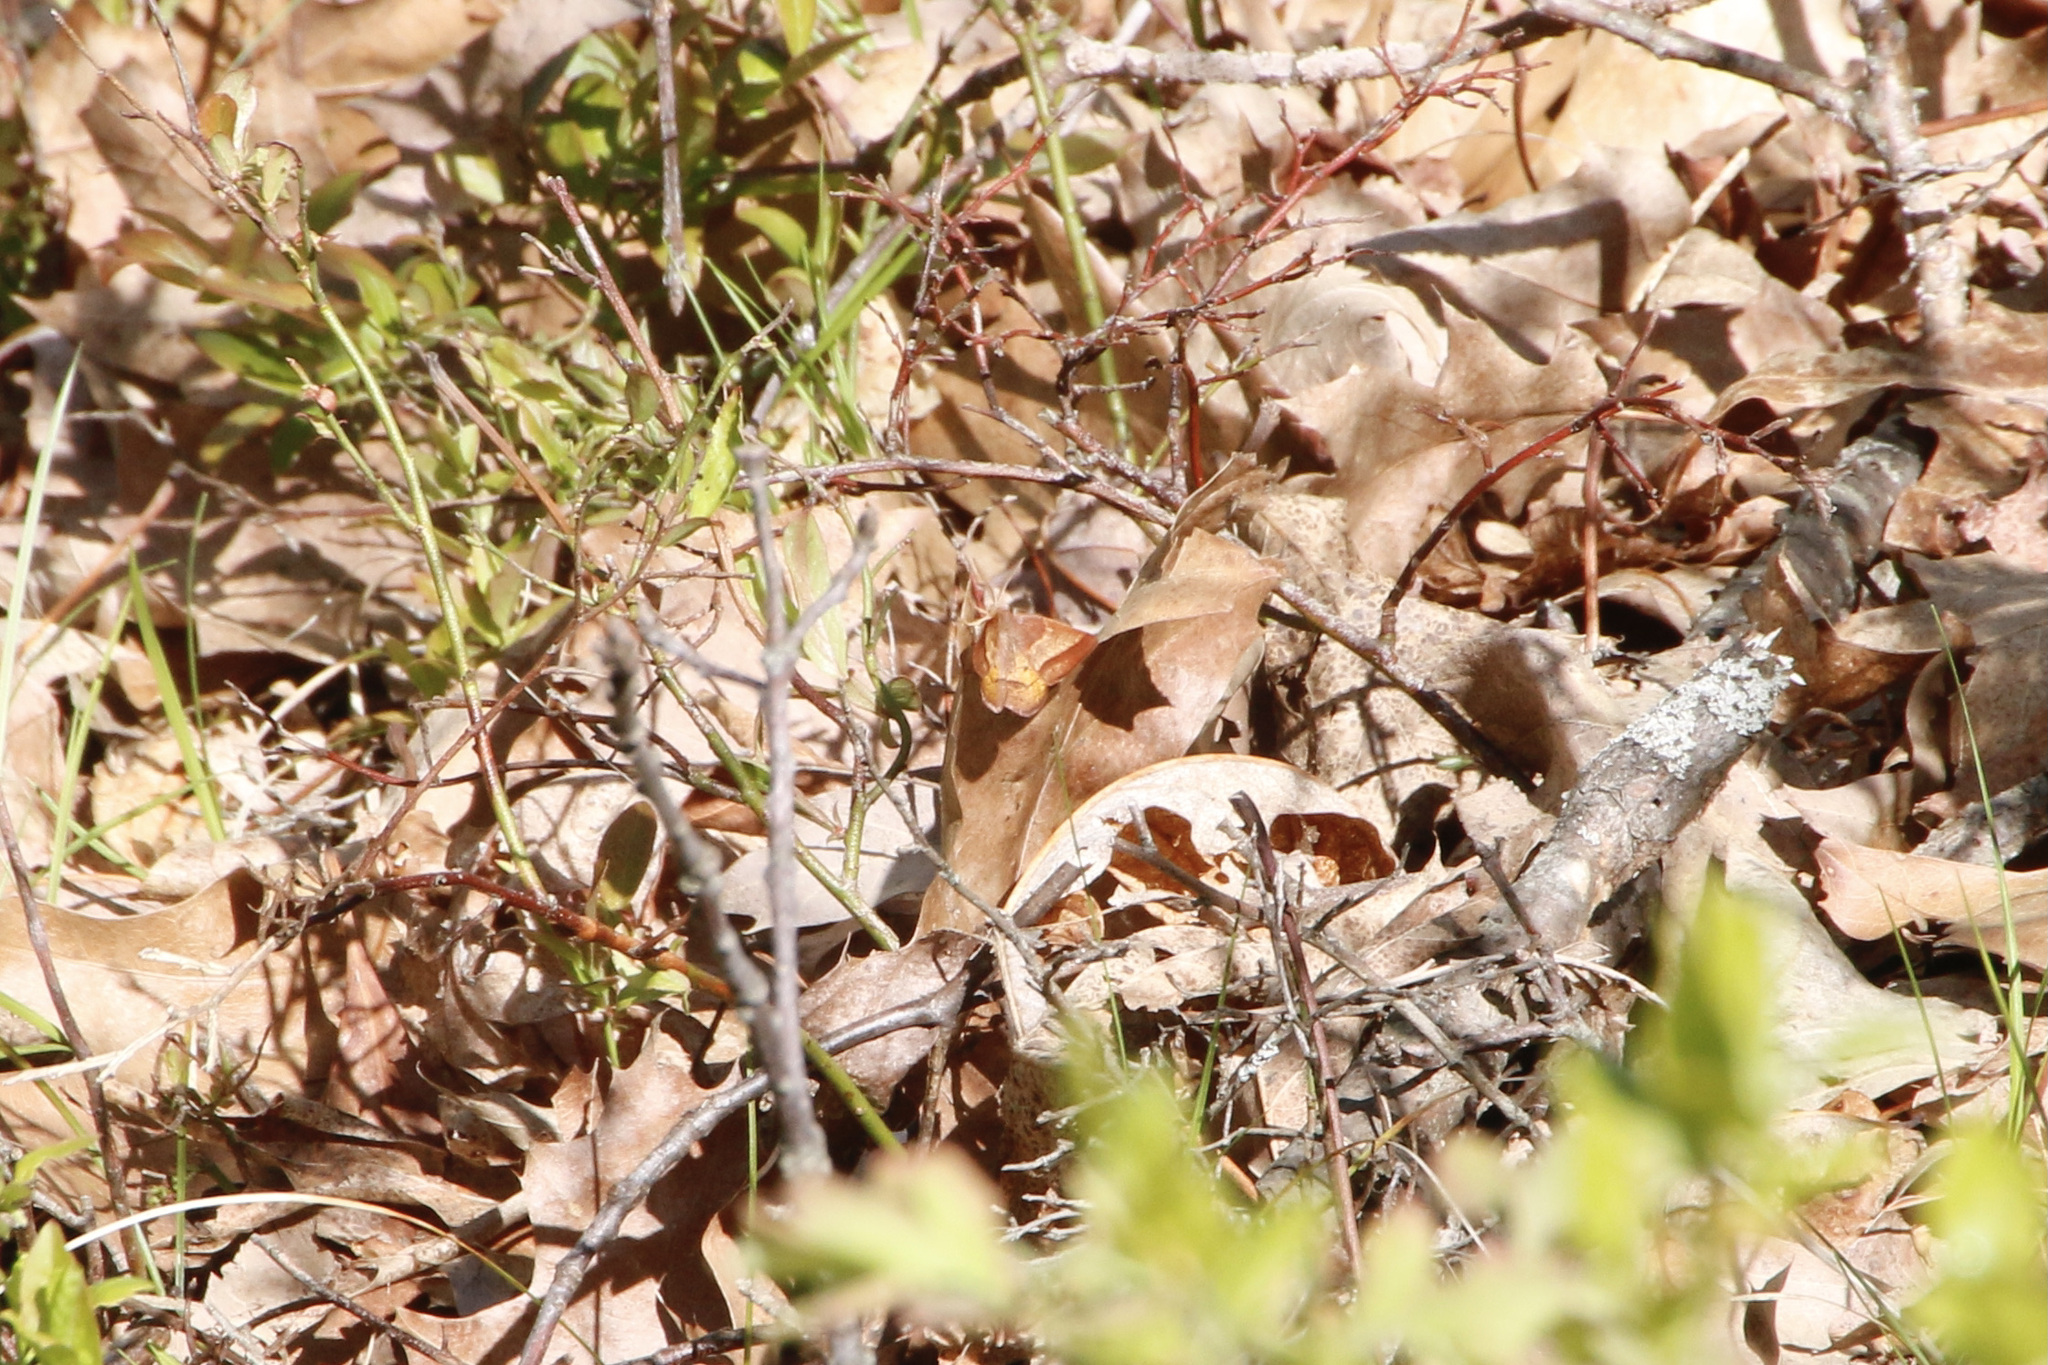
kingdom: Animalia
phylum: Arthropoda
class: Insecta
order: Lepidoptera
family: Geometridae
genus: Metarranthis
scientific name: Metarranthis obfirmaria
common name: Yellow-washed metarranthis
